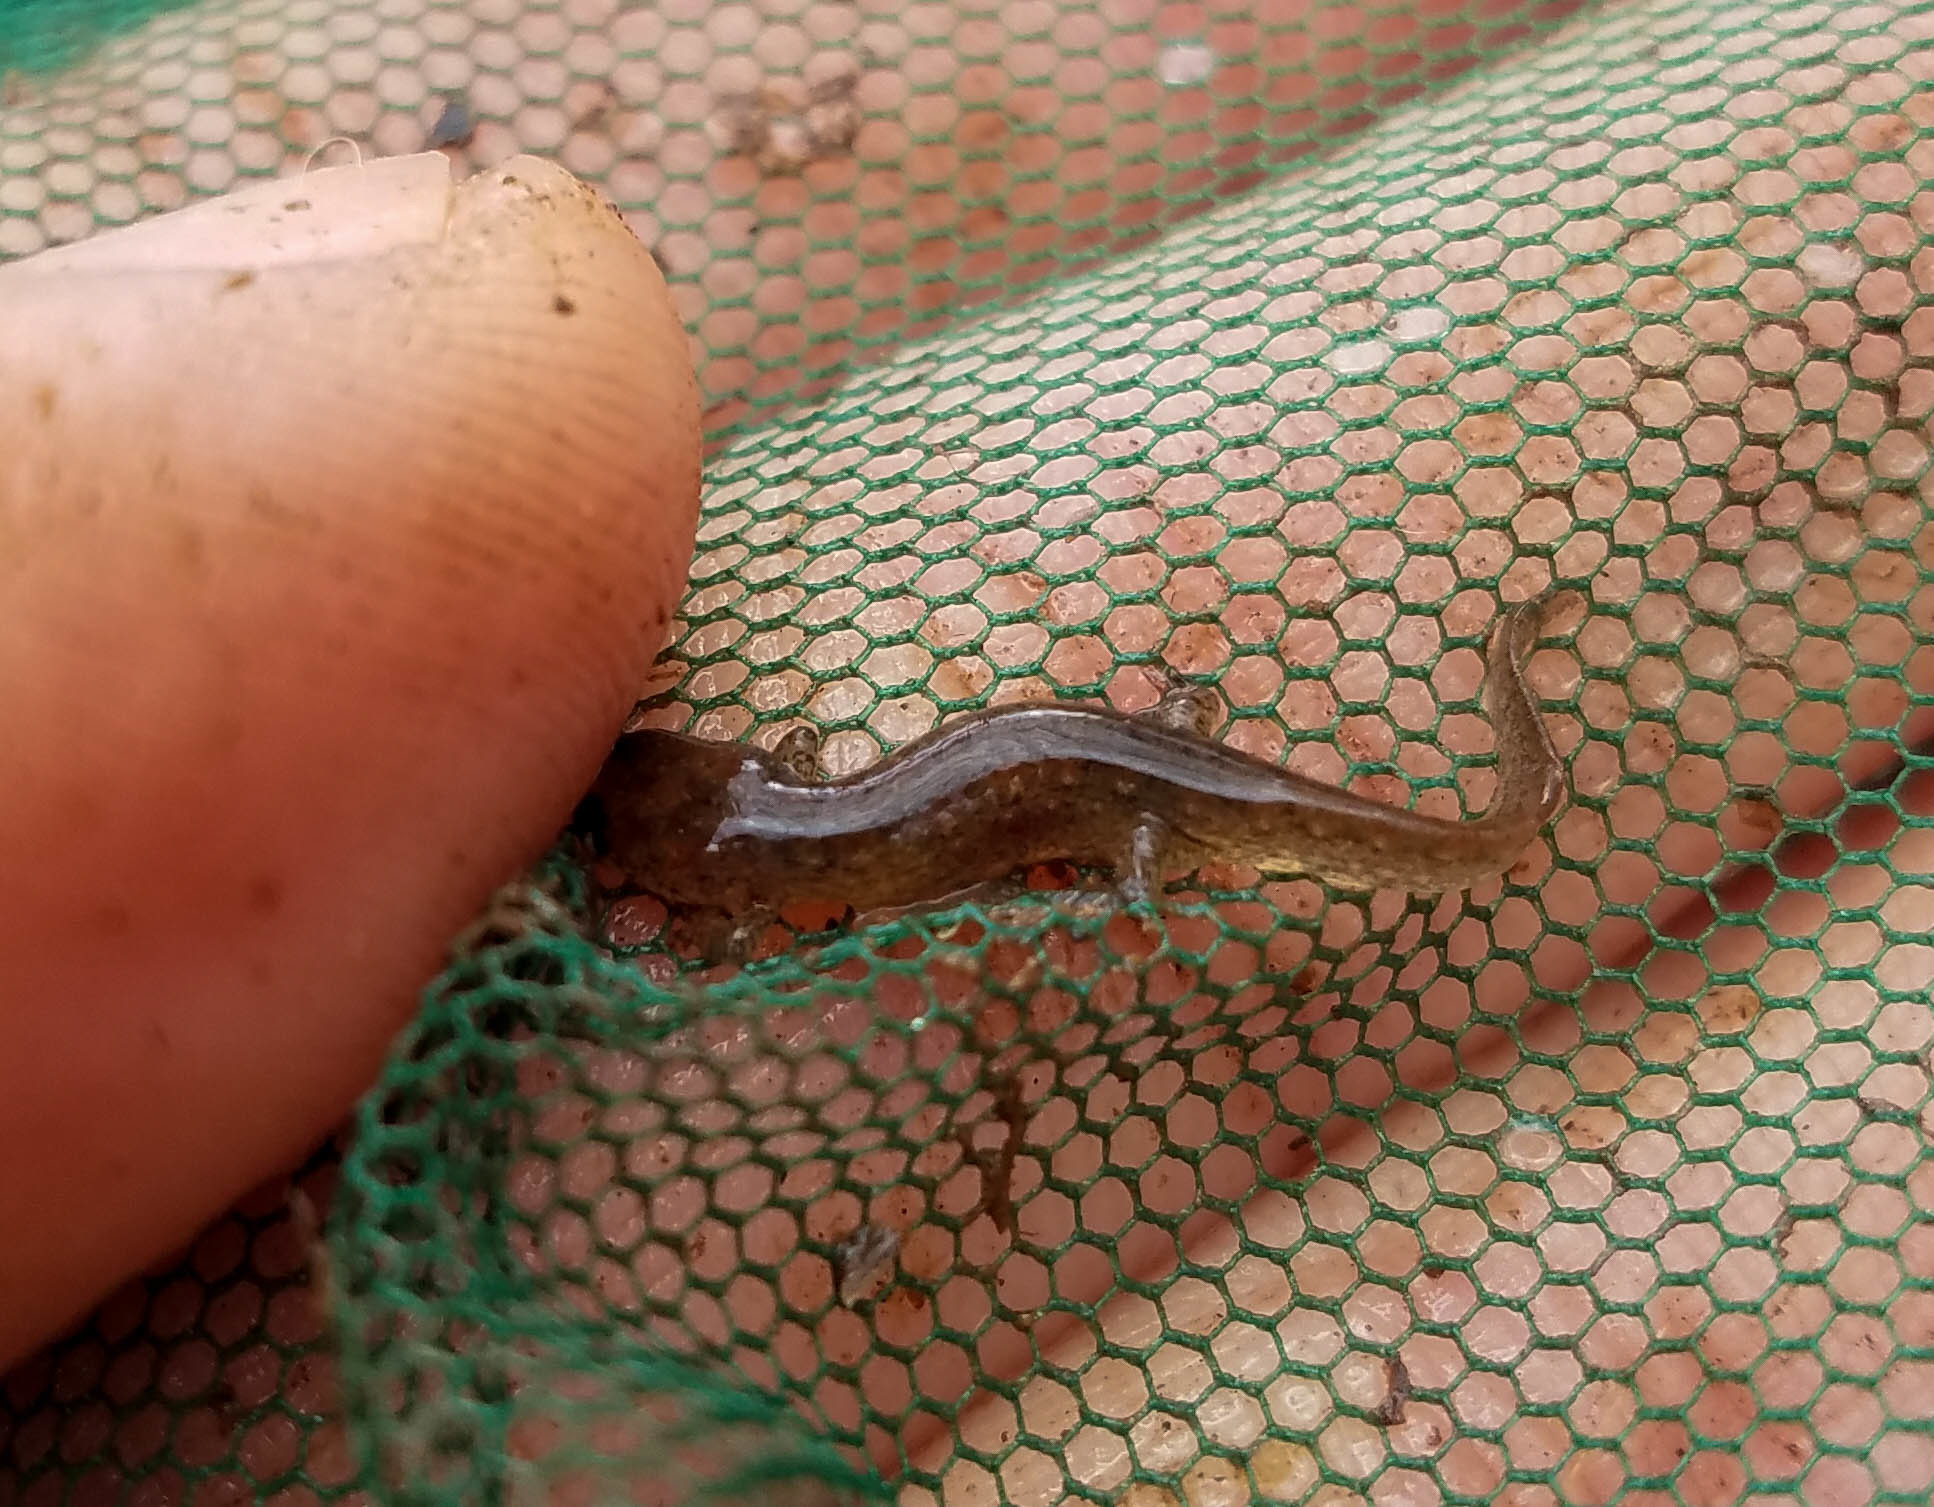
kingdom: Animalia
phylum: Chordata
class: Amphibia
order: Caudata
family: Plethodontidae
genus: Desmognathus
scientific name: Desmognathus fuscus
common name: Northern dusky salamander
